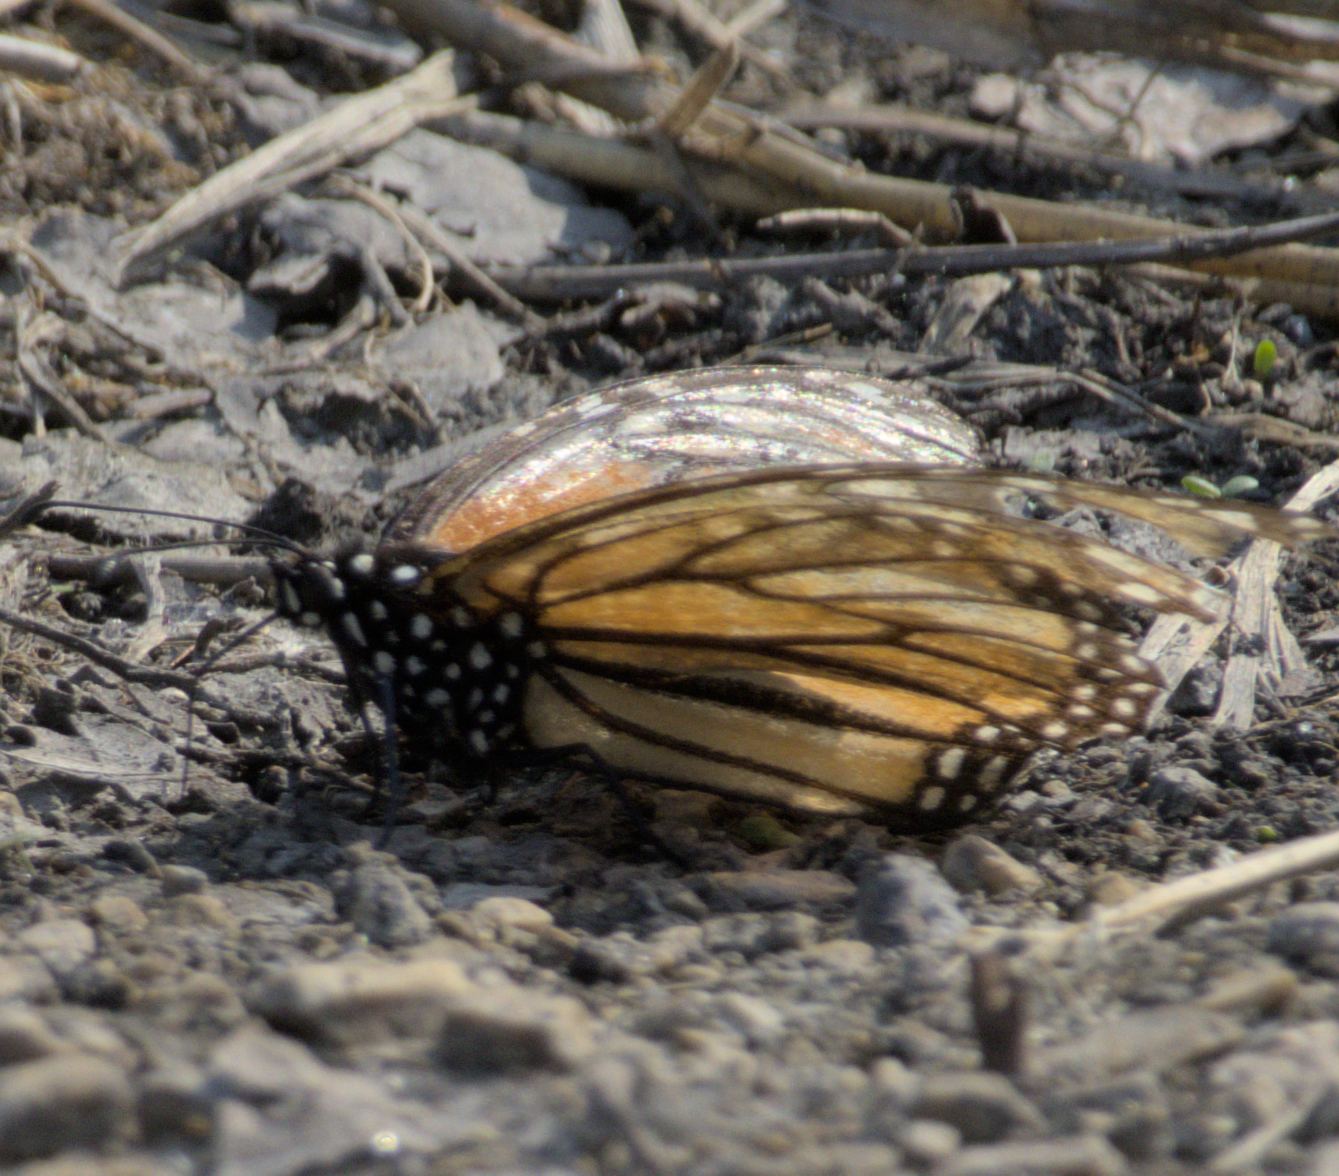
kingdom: Animalia
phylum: Arthropoda
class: Insecta
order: Lepidoptera
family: Nymphalidae
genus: Danaus
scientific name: Danaus plexippus
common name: Monarch
